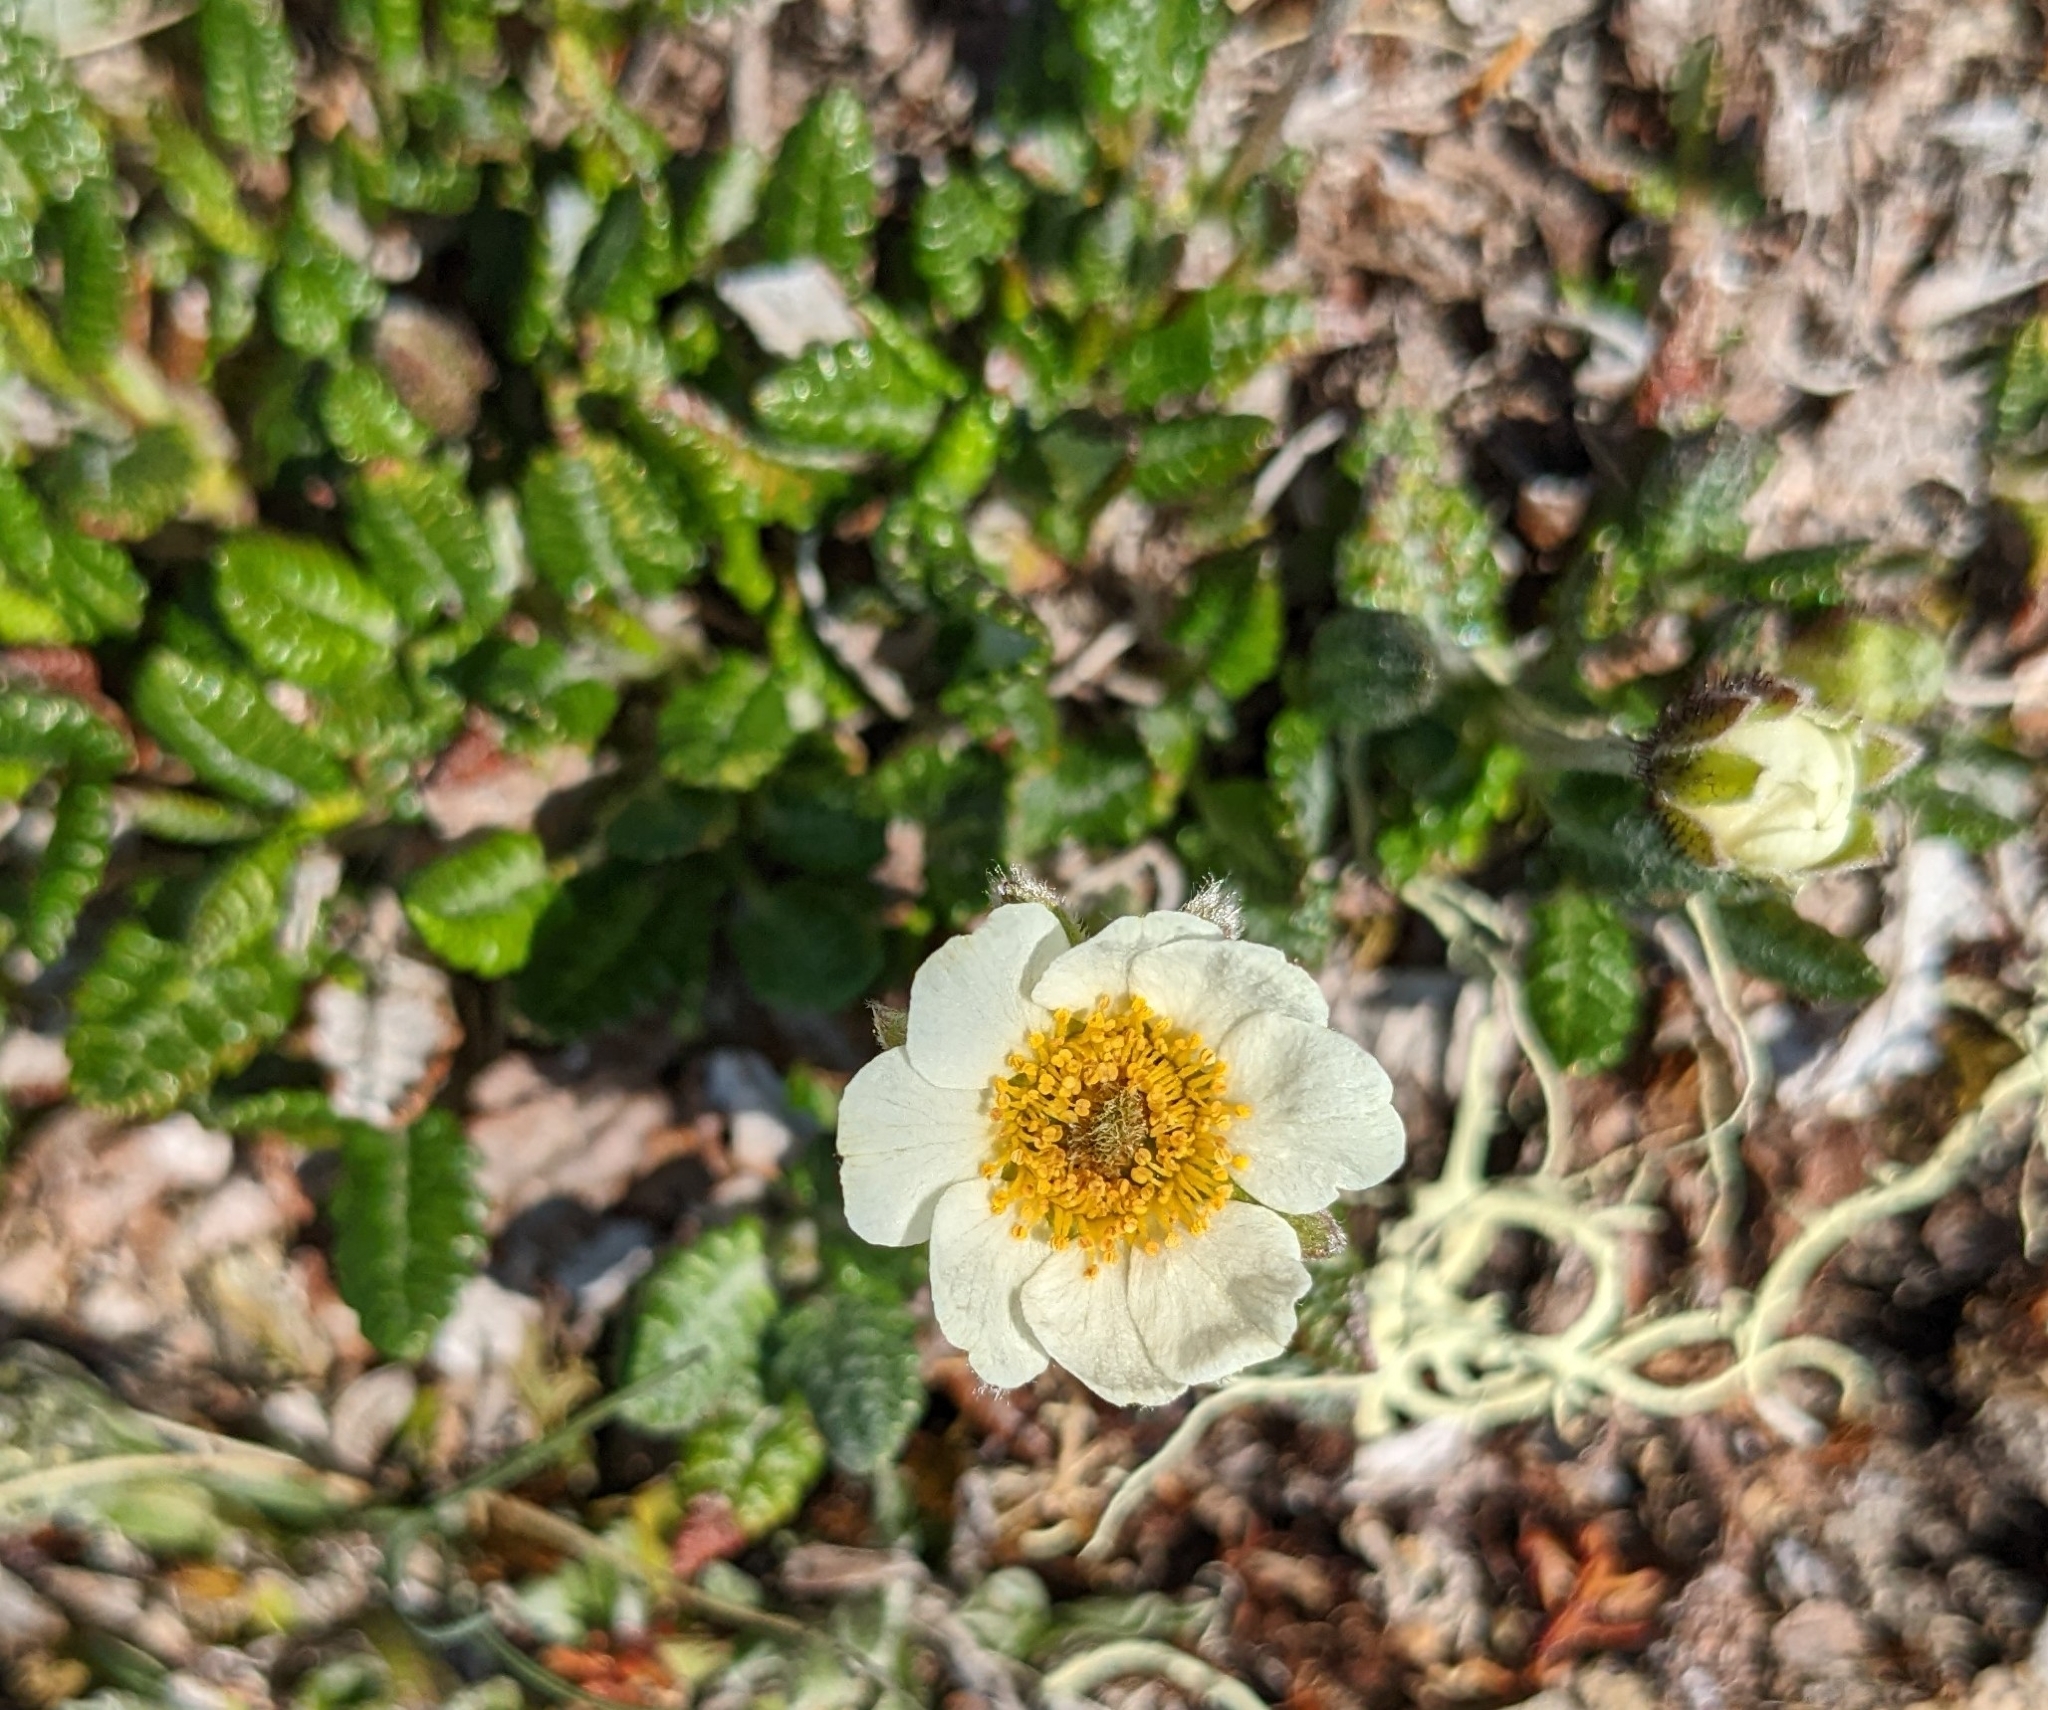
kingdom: Plantae
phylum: Tracheophyta
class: Magnoliopsida
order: Rosales
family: Rosaceae
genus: Dryas
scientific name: Dryas octopetala
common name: Eight-petal mountain-avens
